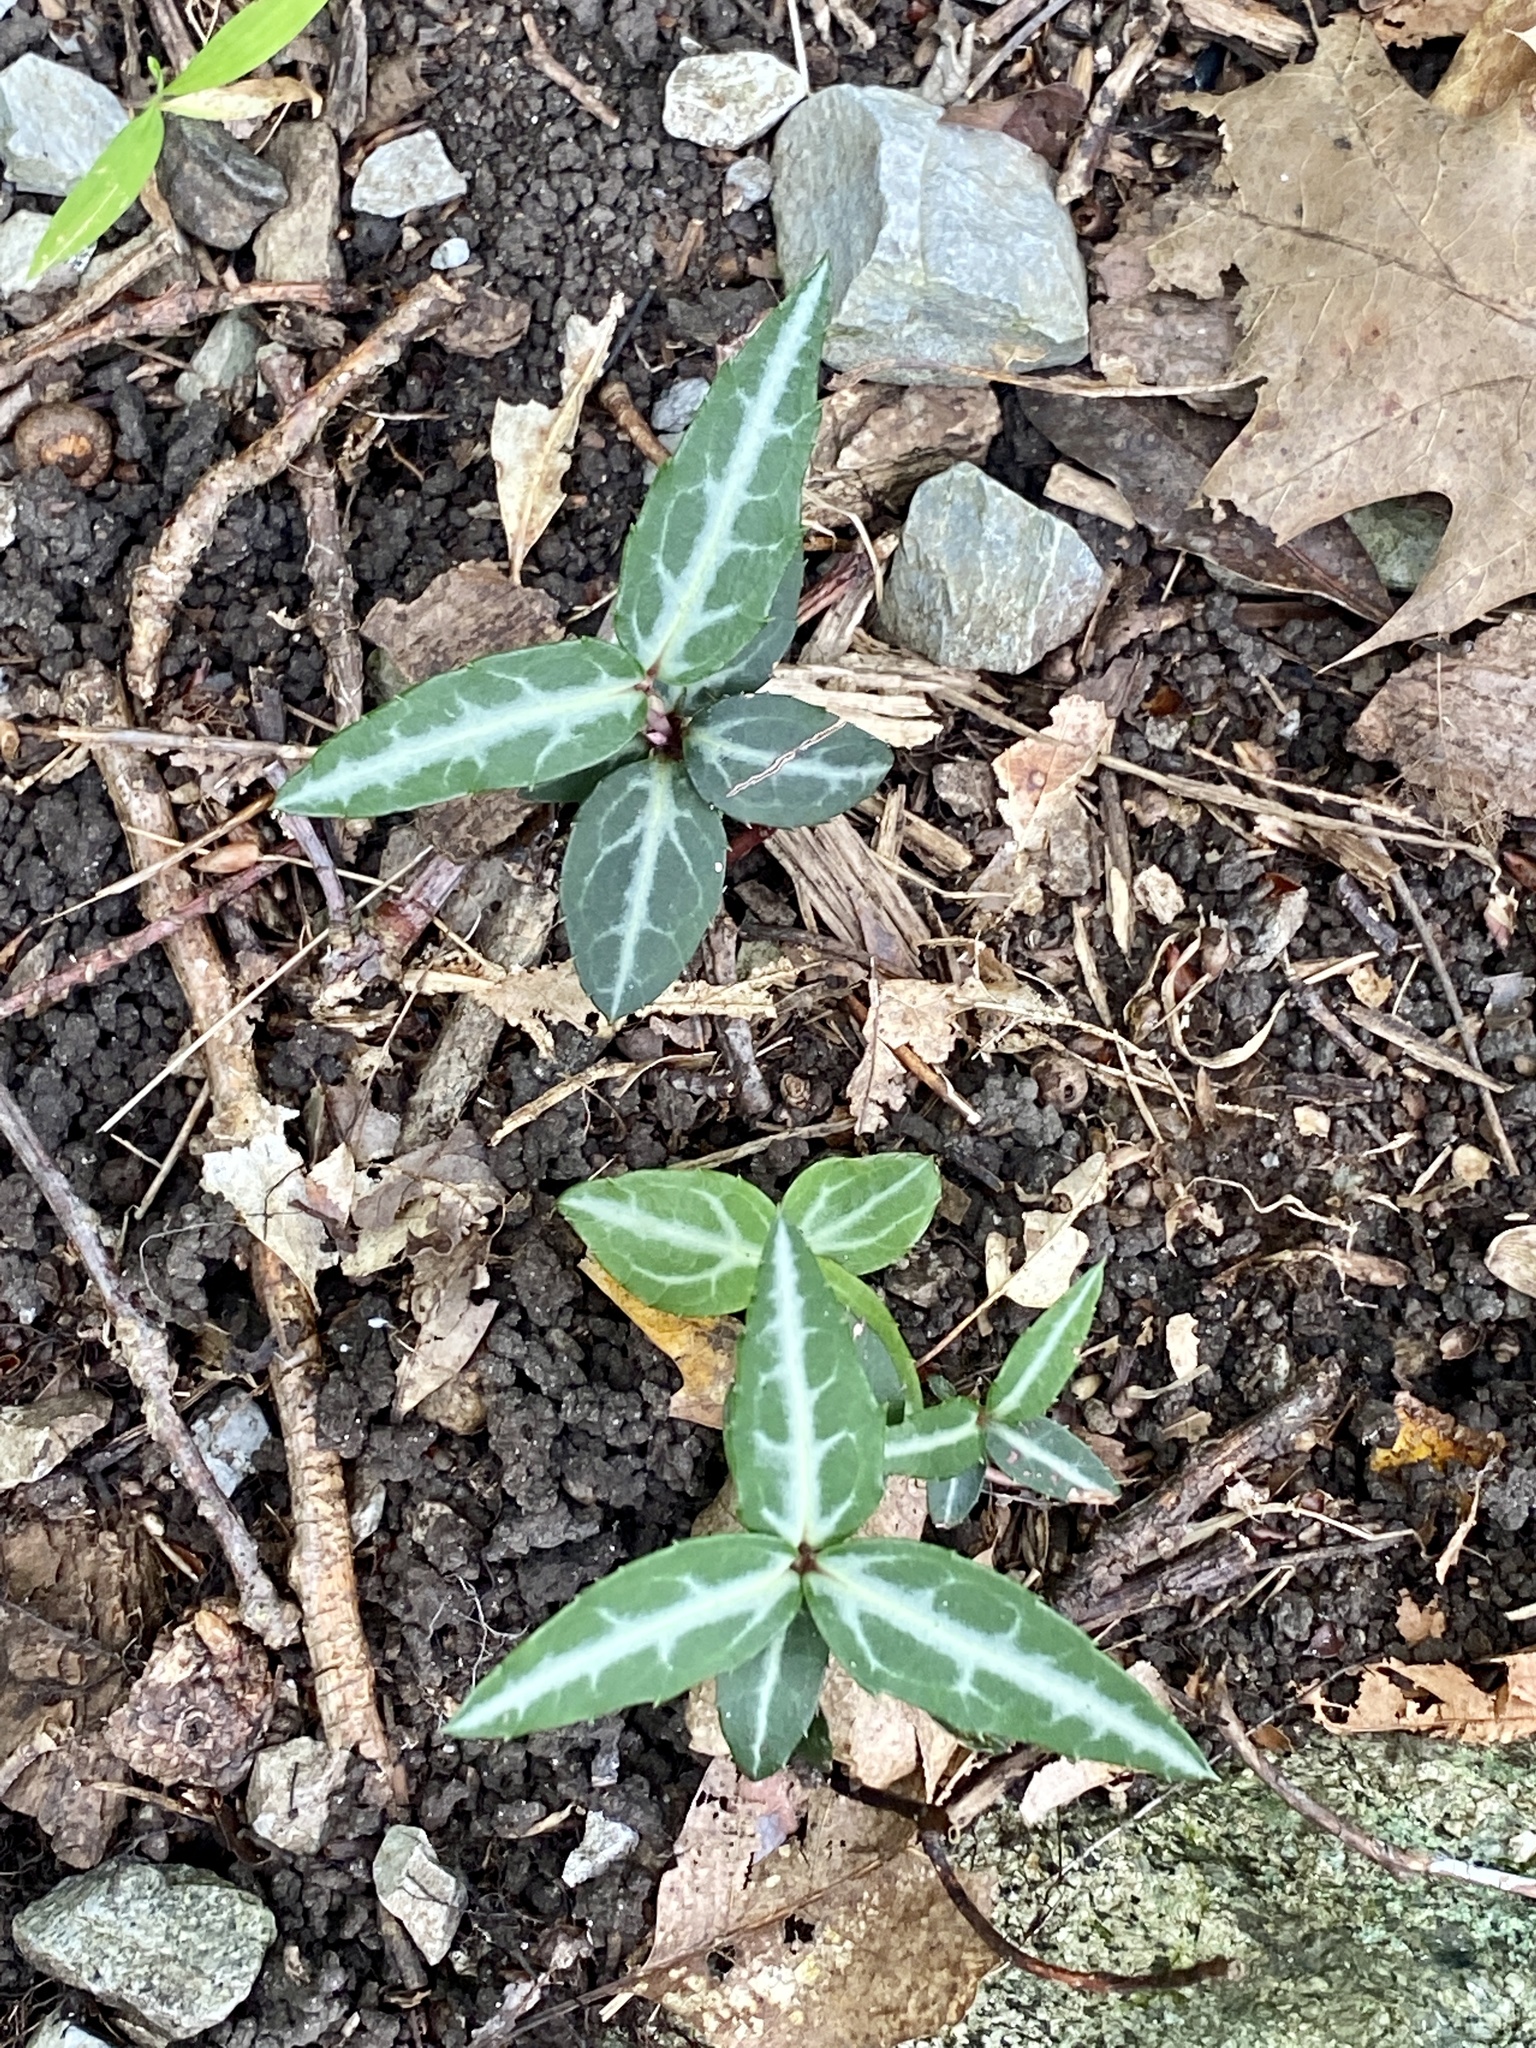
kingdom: Plantae
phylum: Tracheophyta
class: Magnoliopsida
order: Ericales
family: Ericaceae
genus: Chimaphila
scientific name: Chimaphila maculata
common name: Spotted pipsissewa
